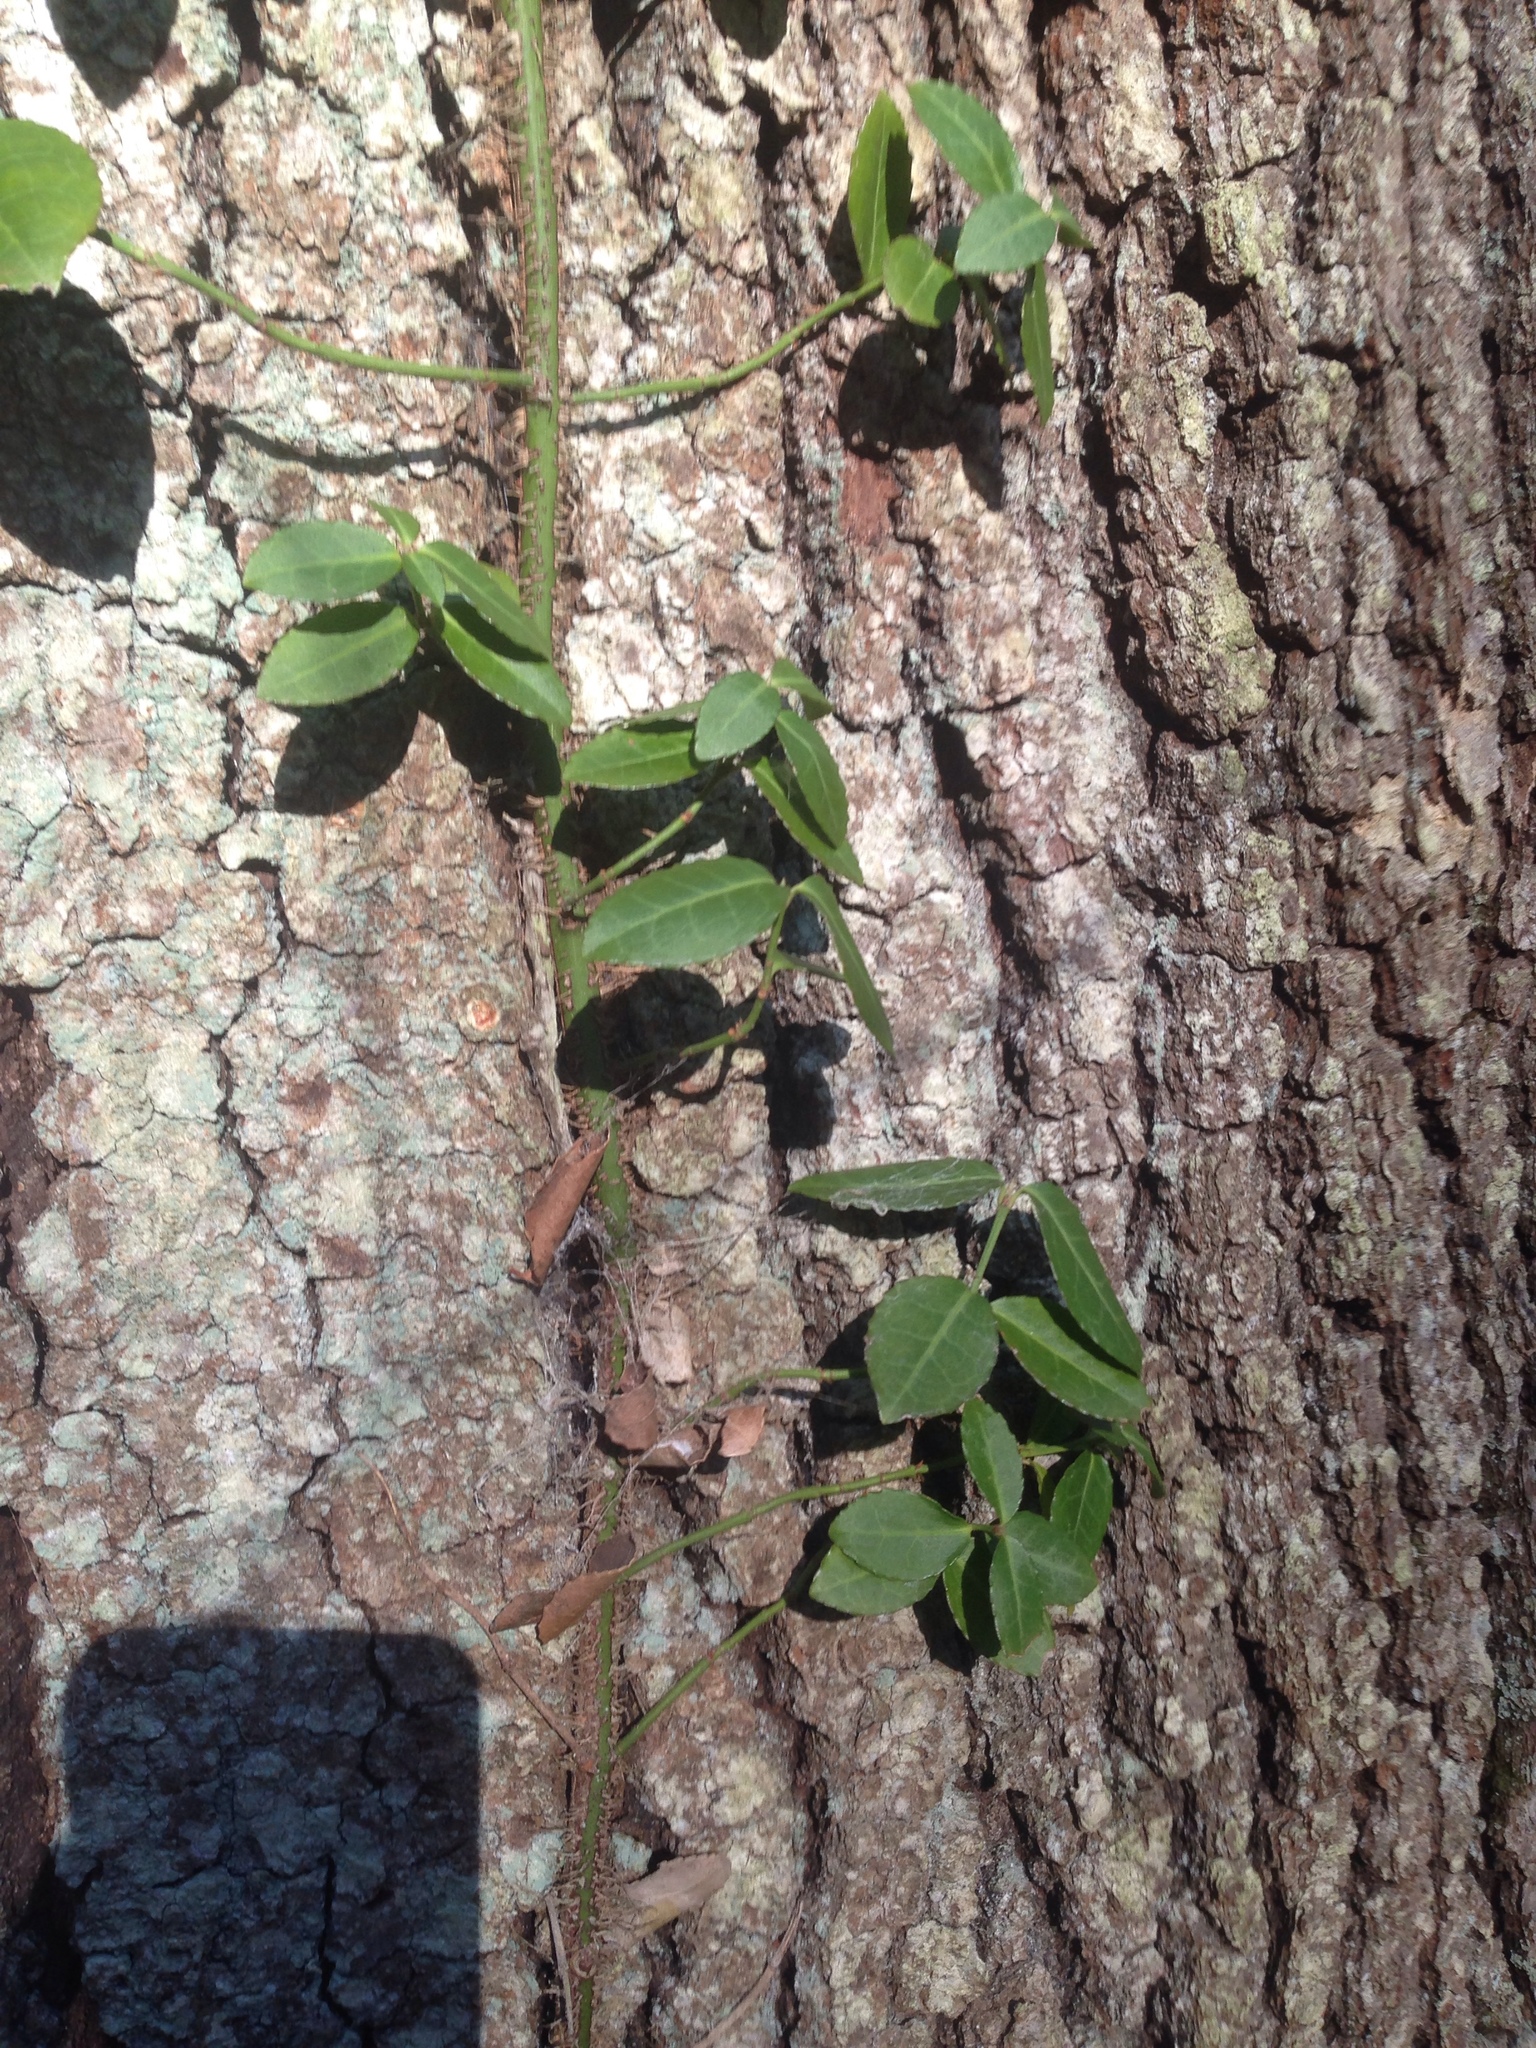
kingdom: Plantae
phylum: Tracheophyta
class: Magnoliopsida
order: Celastrales
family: Celastraceae
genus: Euonymus
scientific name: Euonymus fortunei
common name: Climbing euonymus
